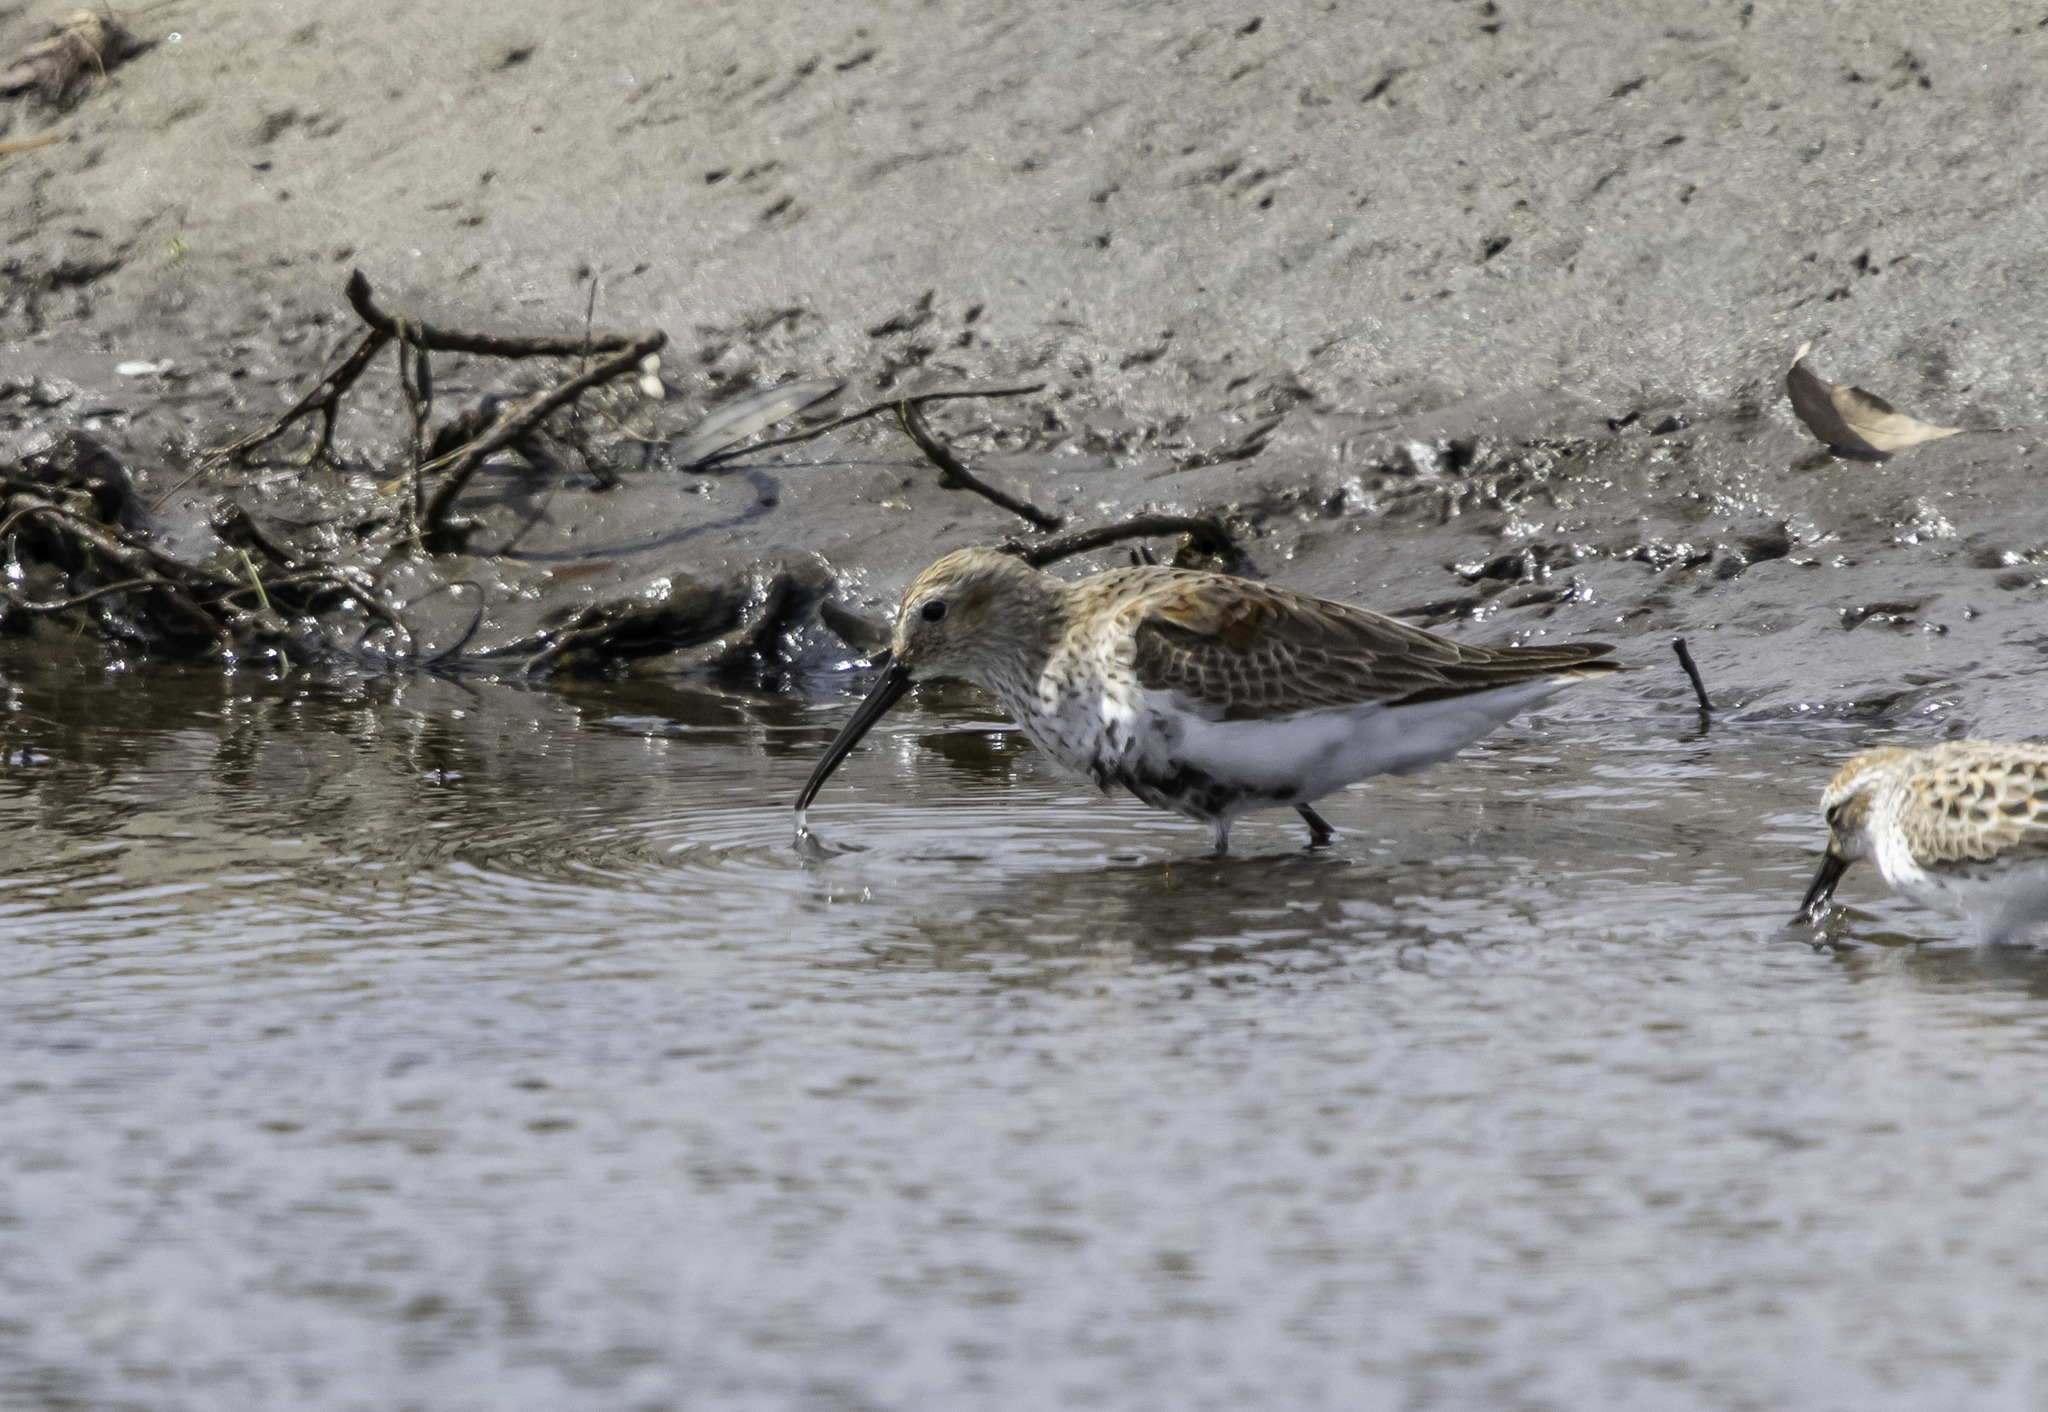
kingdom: Animalia
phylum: Chordata
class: Aves
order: Charadriiformes
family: Scolopacidae
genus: Calidris
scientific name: Calidris alpina
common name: Dunlin
